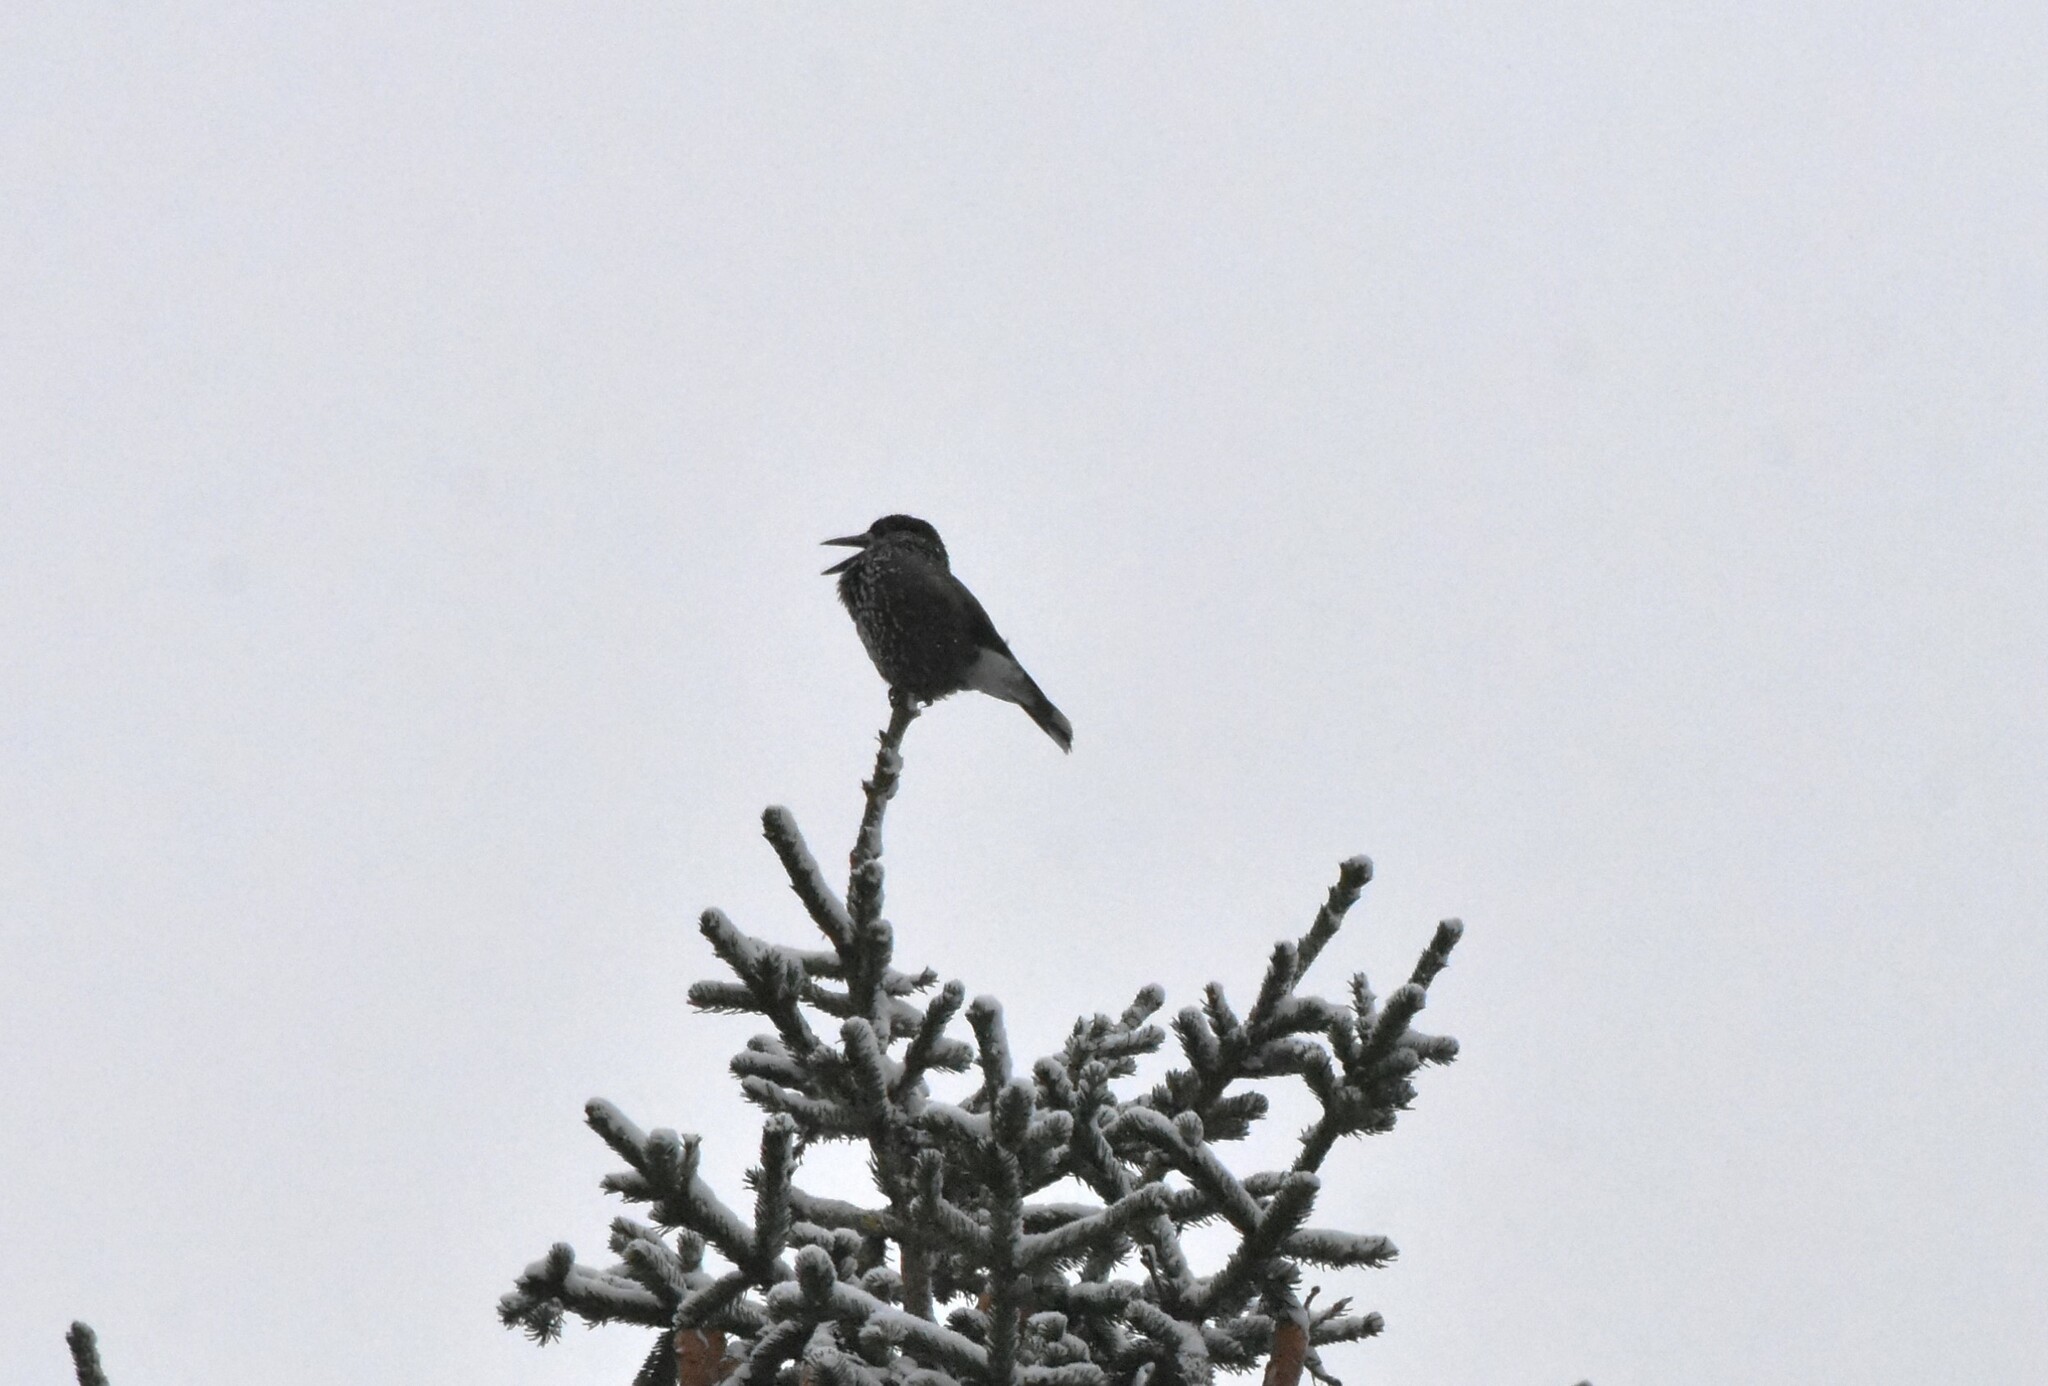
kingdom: Animalia
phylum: Chordata
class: Aves
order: Passeriformes
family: Corvidae
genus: Nucifraga
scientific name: Nucifraga caryocatactes
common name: Spotted nutcracker
